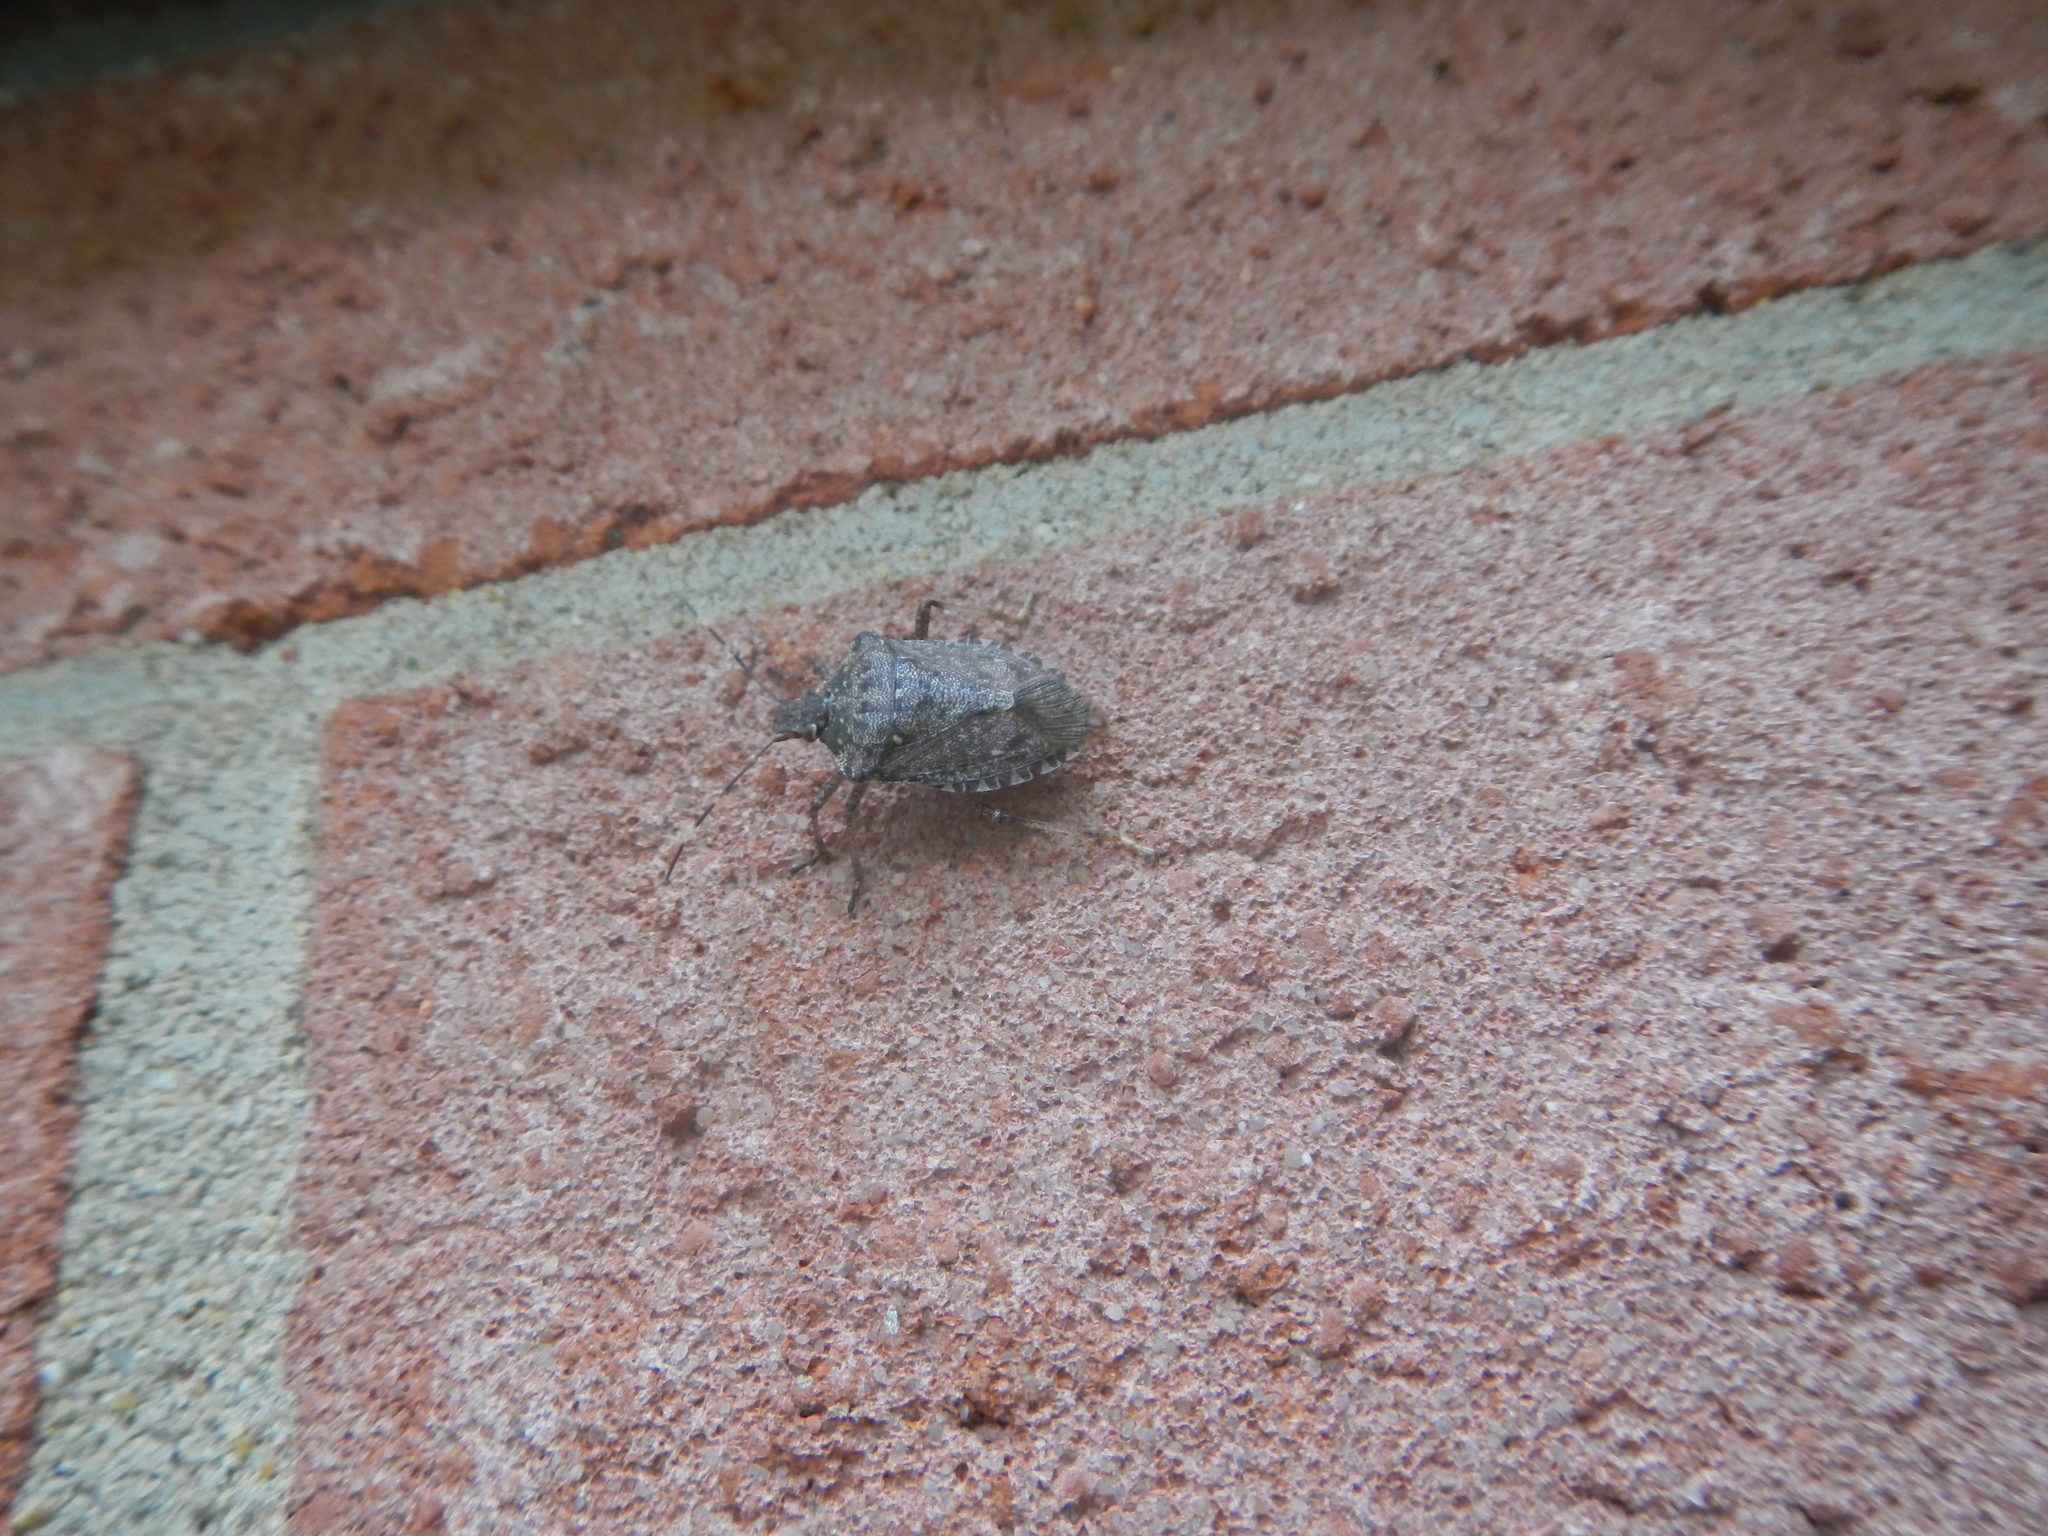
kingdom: Animalia
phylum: Arthropoda
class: Insecta
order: Hemiptera
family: Pentatomidae
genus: Halyomorpha
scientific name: Halyomorpha halys
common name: Brown marmorated stink bug
